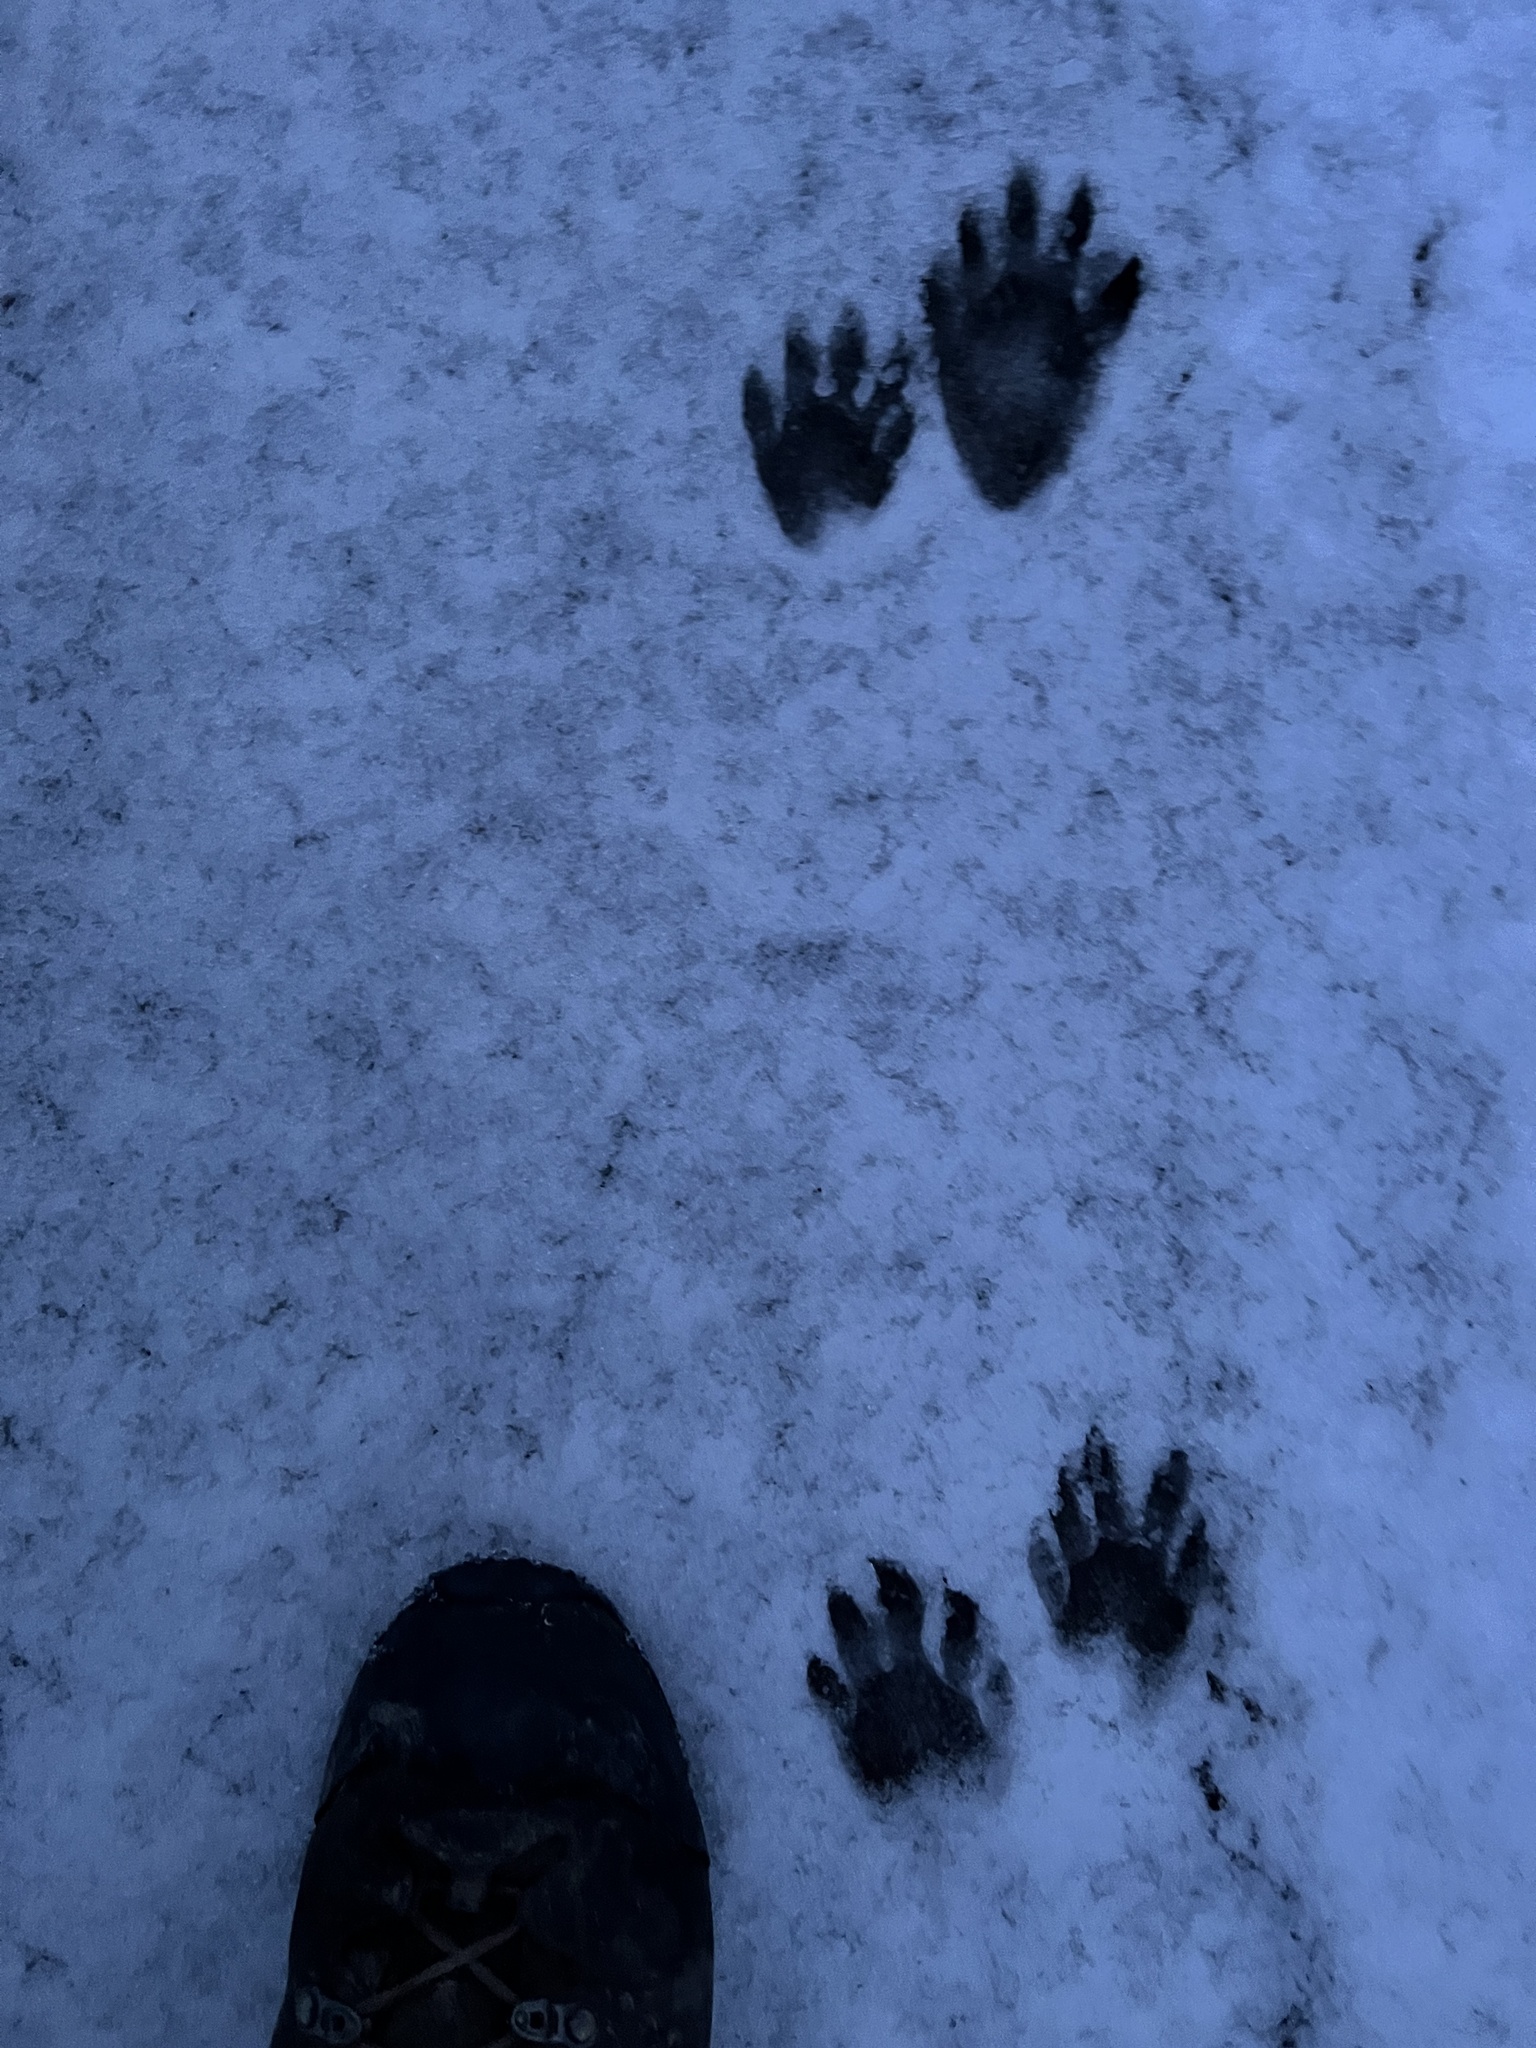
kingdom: Animalia
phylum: Chordata
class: Mammalia
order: Carnivora
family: Procyonidae
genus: Procyon
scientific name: Procyon lotor
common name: Raccoon
